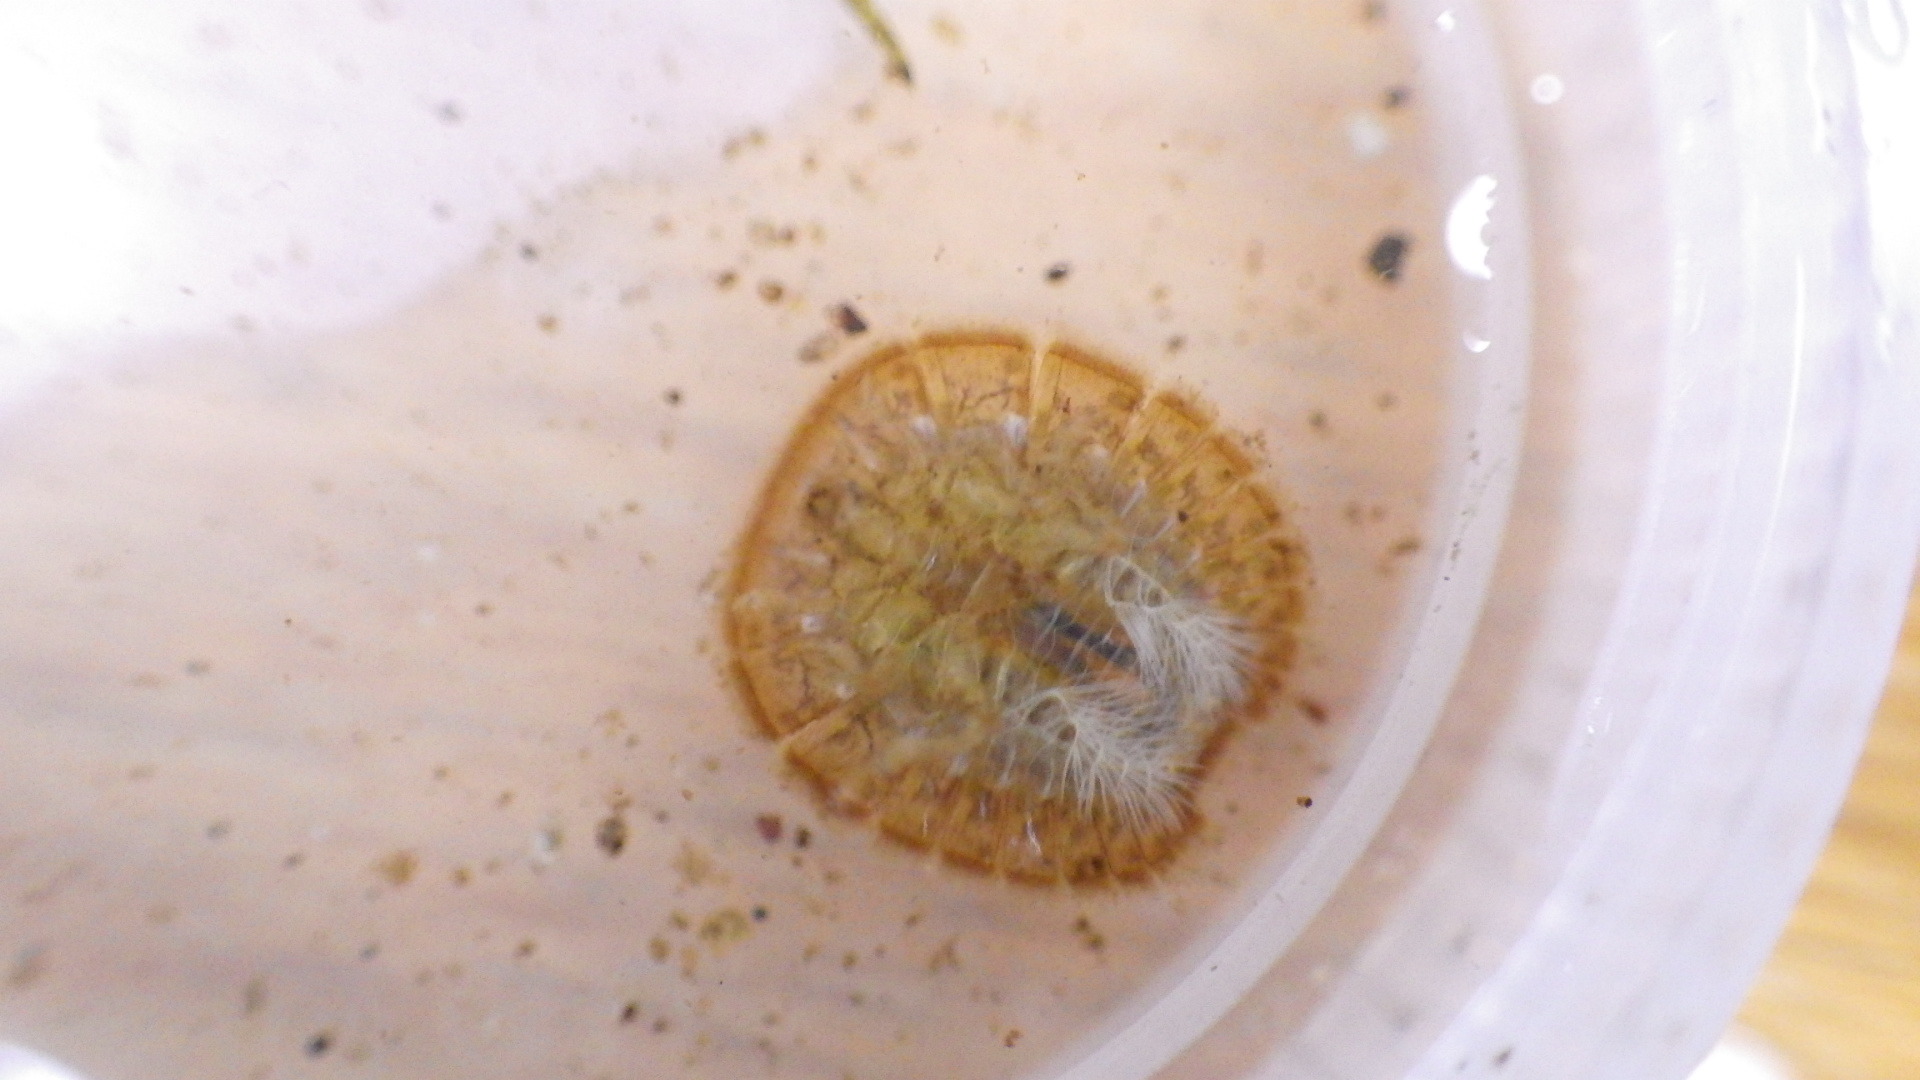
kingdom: Animalia
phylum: Arthropoda
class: Insecta
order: Coleoptera
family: Psephenidae
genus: Psephenus
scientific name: Psephenus herricki
